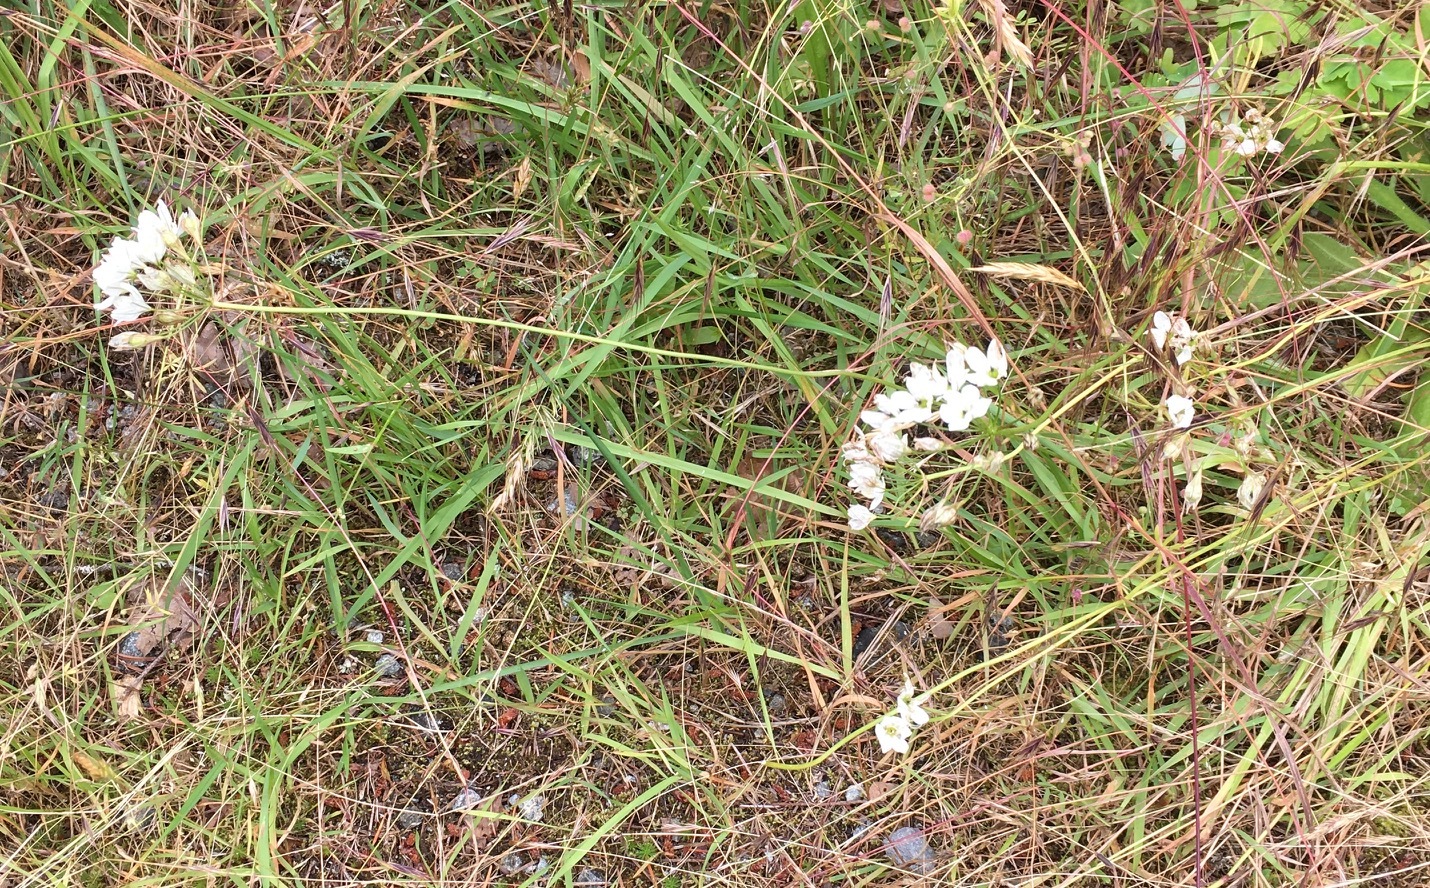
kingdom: Plantae
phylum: Tracheophyta
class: Liliopsida
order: Asparagales
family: Asparagaceae
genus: Triteleia
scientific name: Triteleia hyacinthina
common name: White brodiaea
